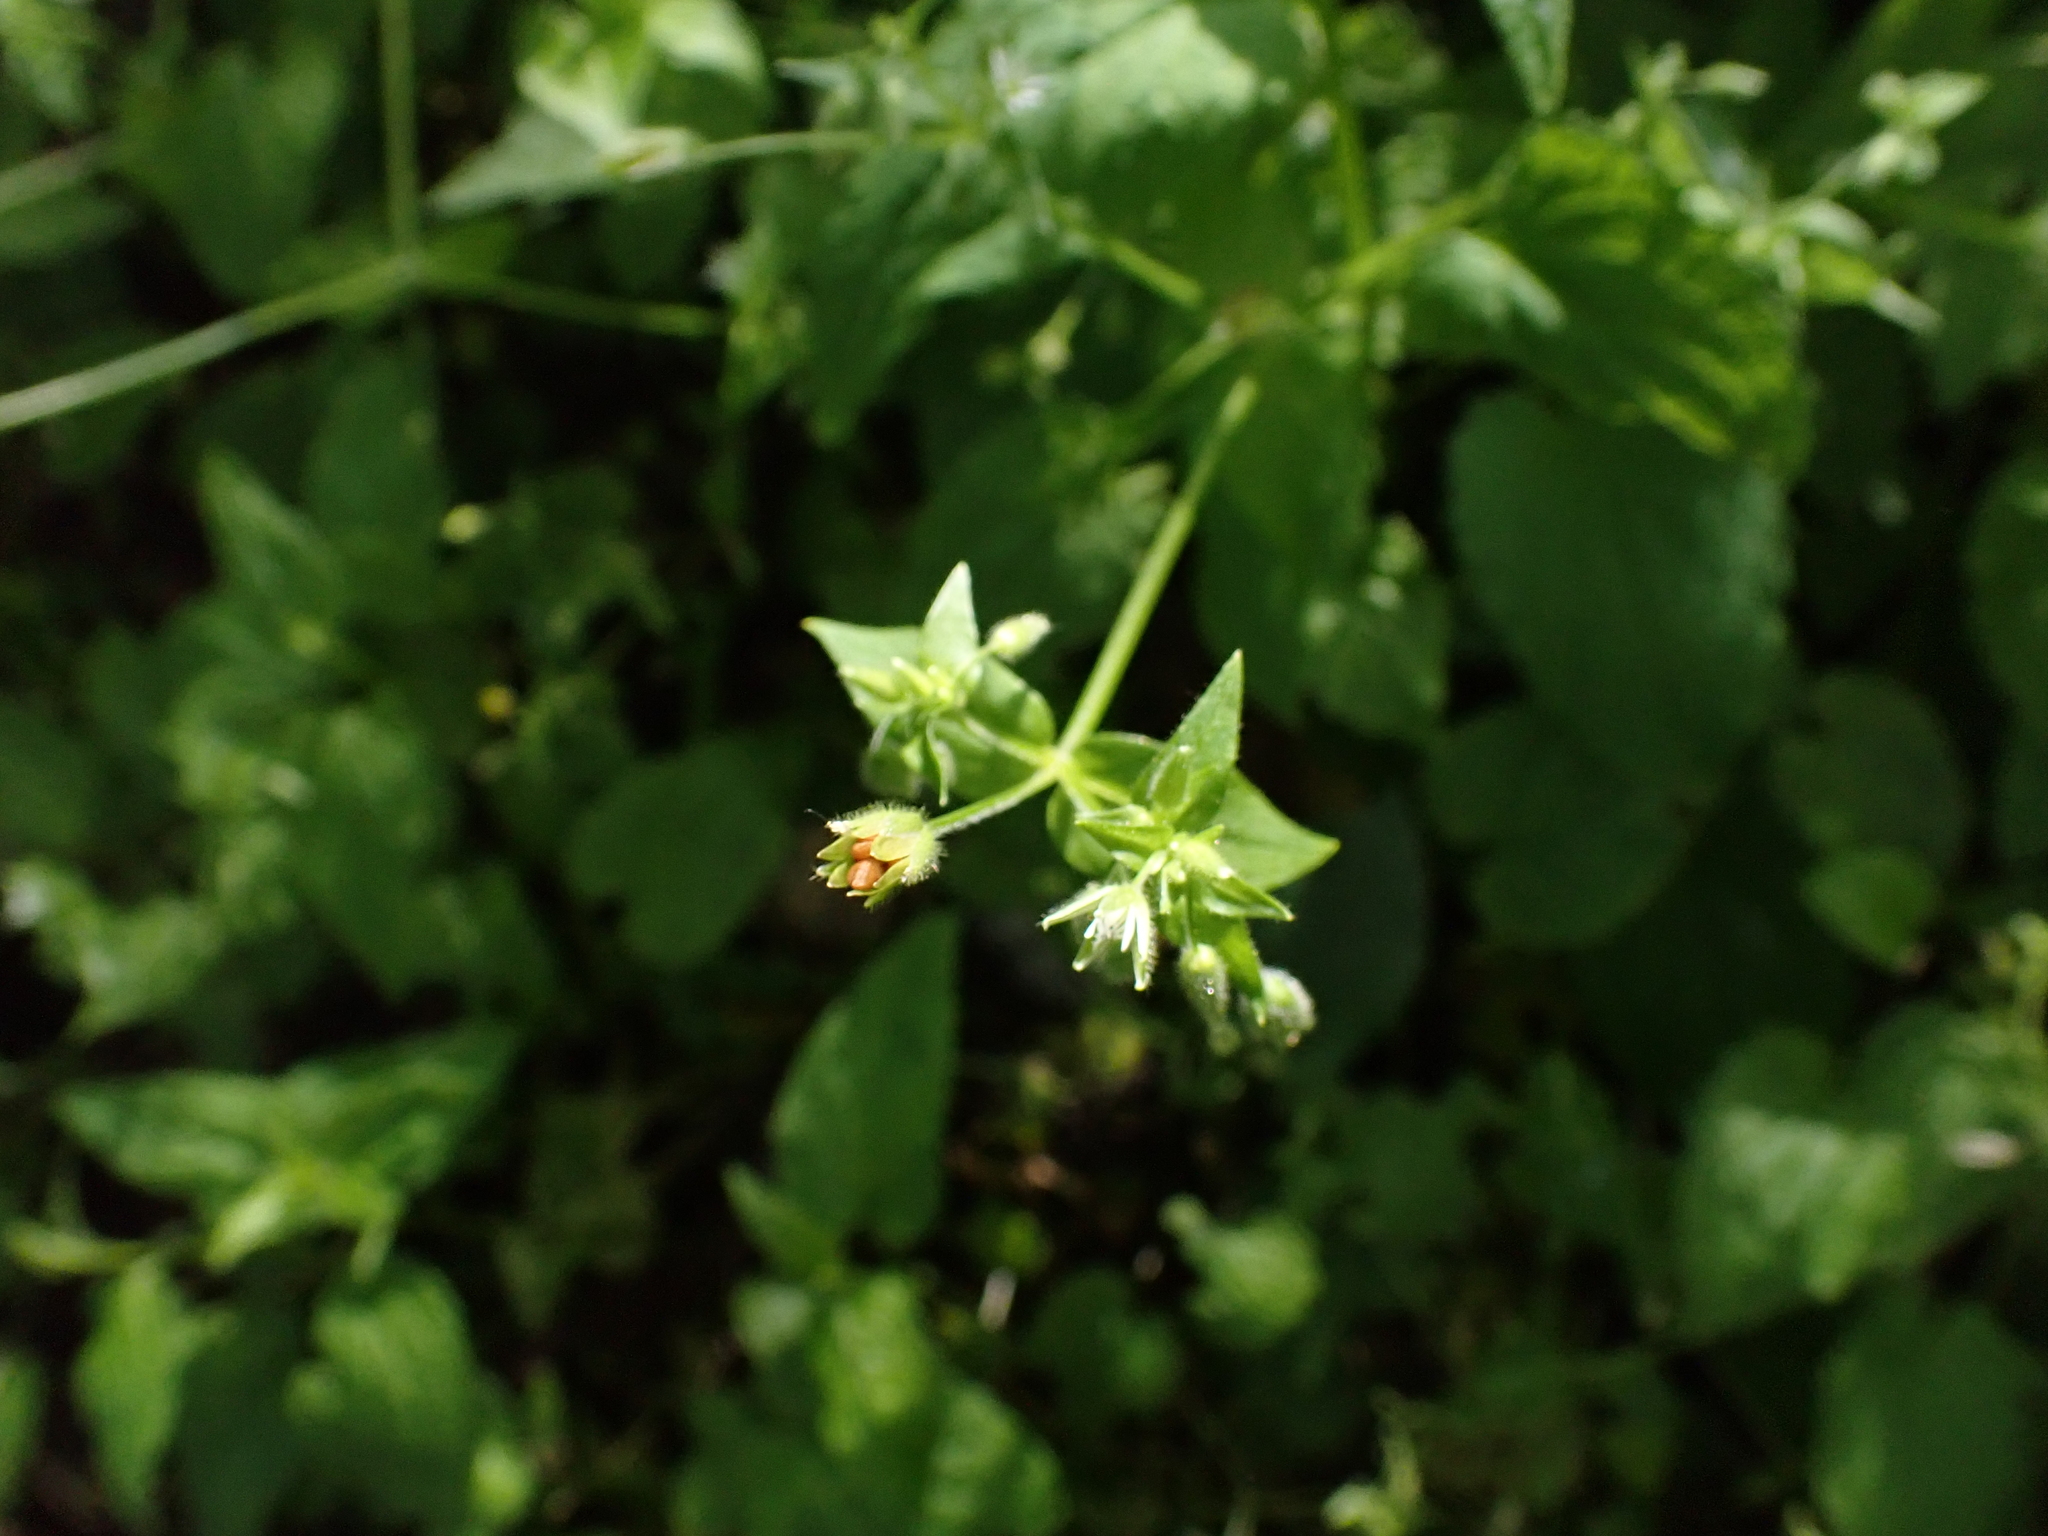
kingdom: Plantae
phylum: Tracheophyta
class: Magnoliopsida
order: Caryophyllales
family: Caryophyllaceae
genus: Stellaria
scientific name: Stellaria ruderalis
